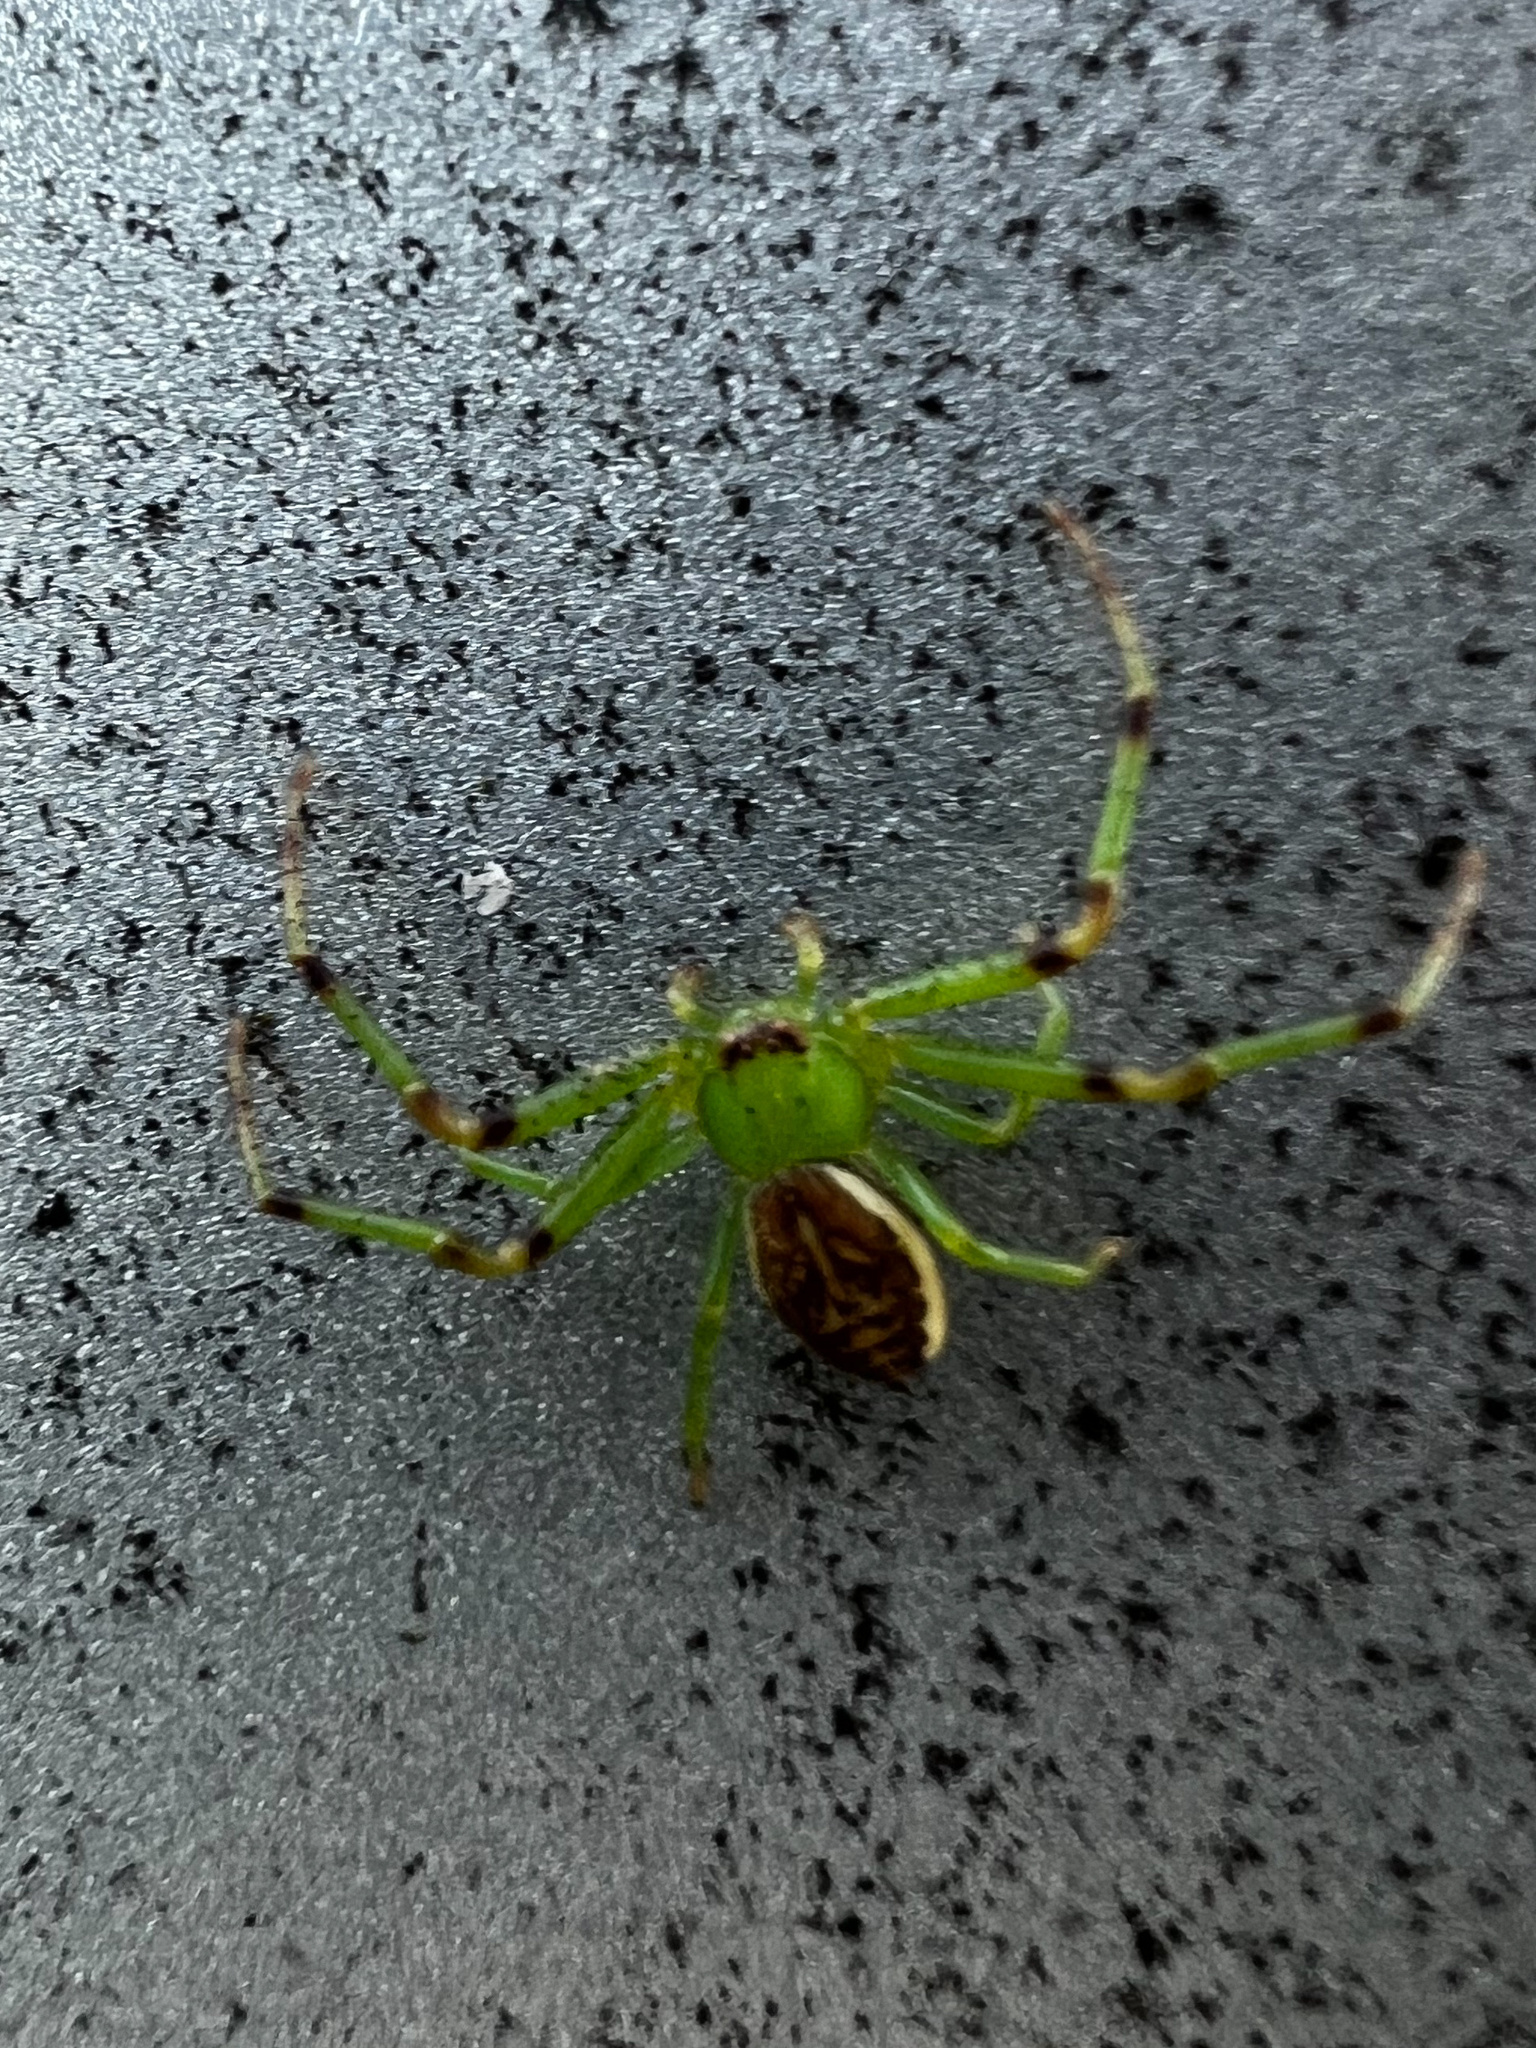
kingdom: Animalia
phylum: Arthropoda
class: Arachnida
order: Araneae
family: Thomisidae
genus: Diaea
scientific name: Diaea dorsata
